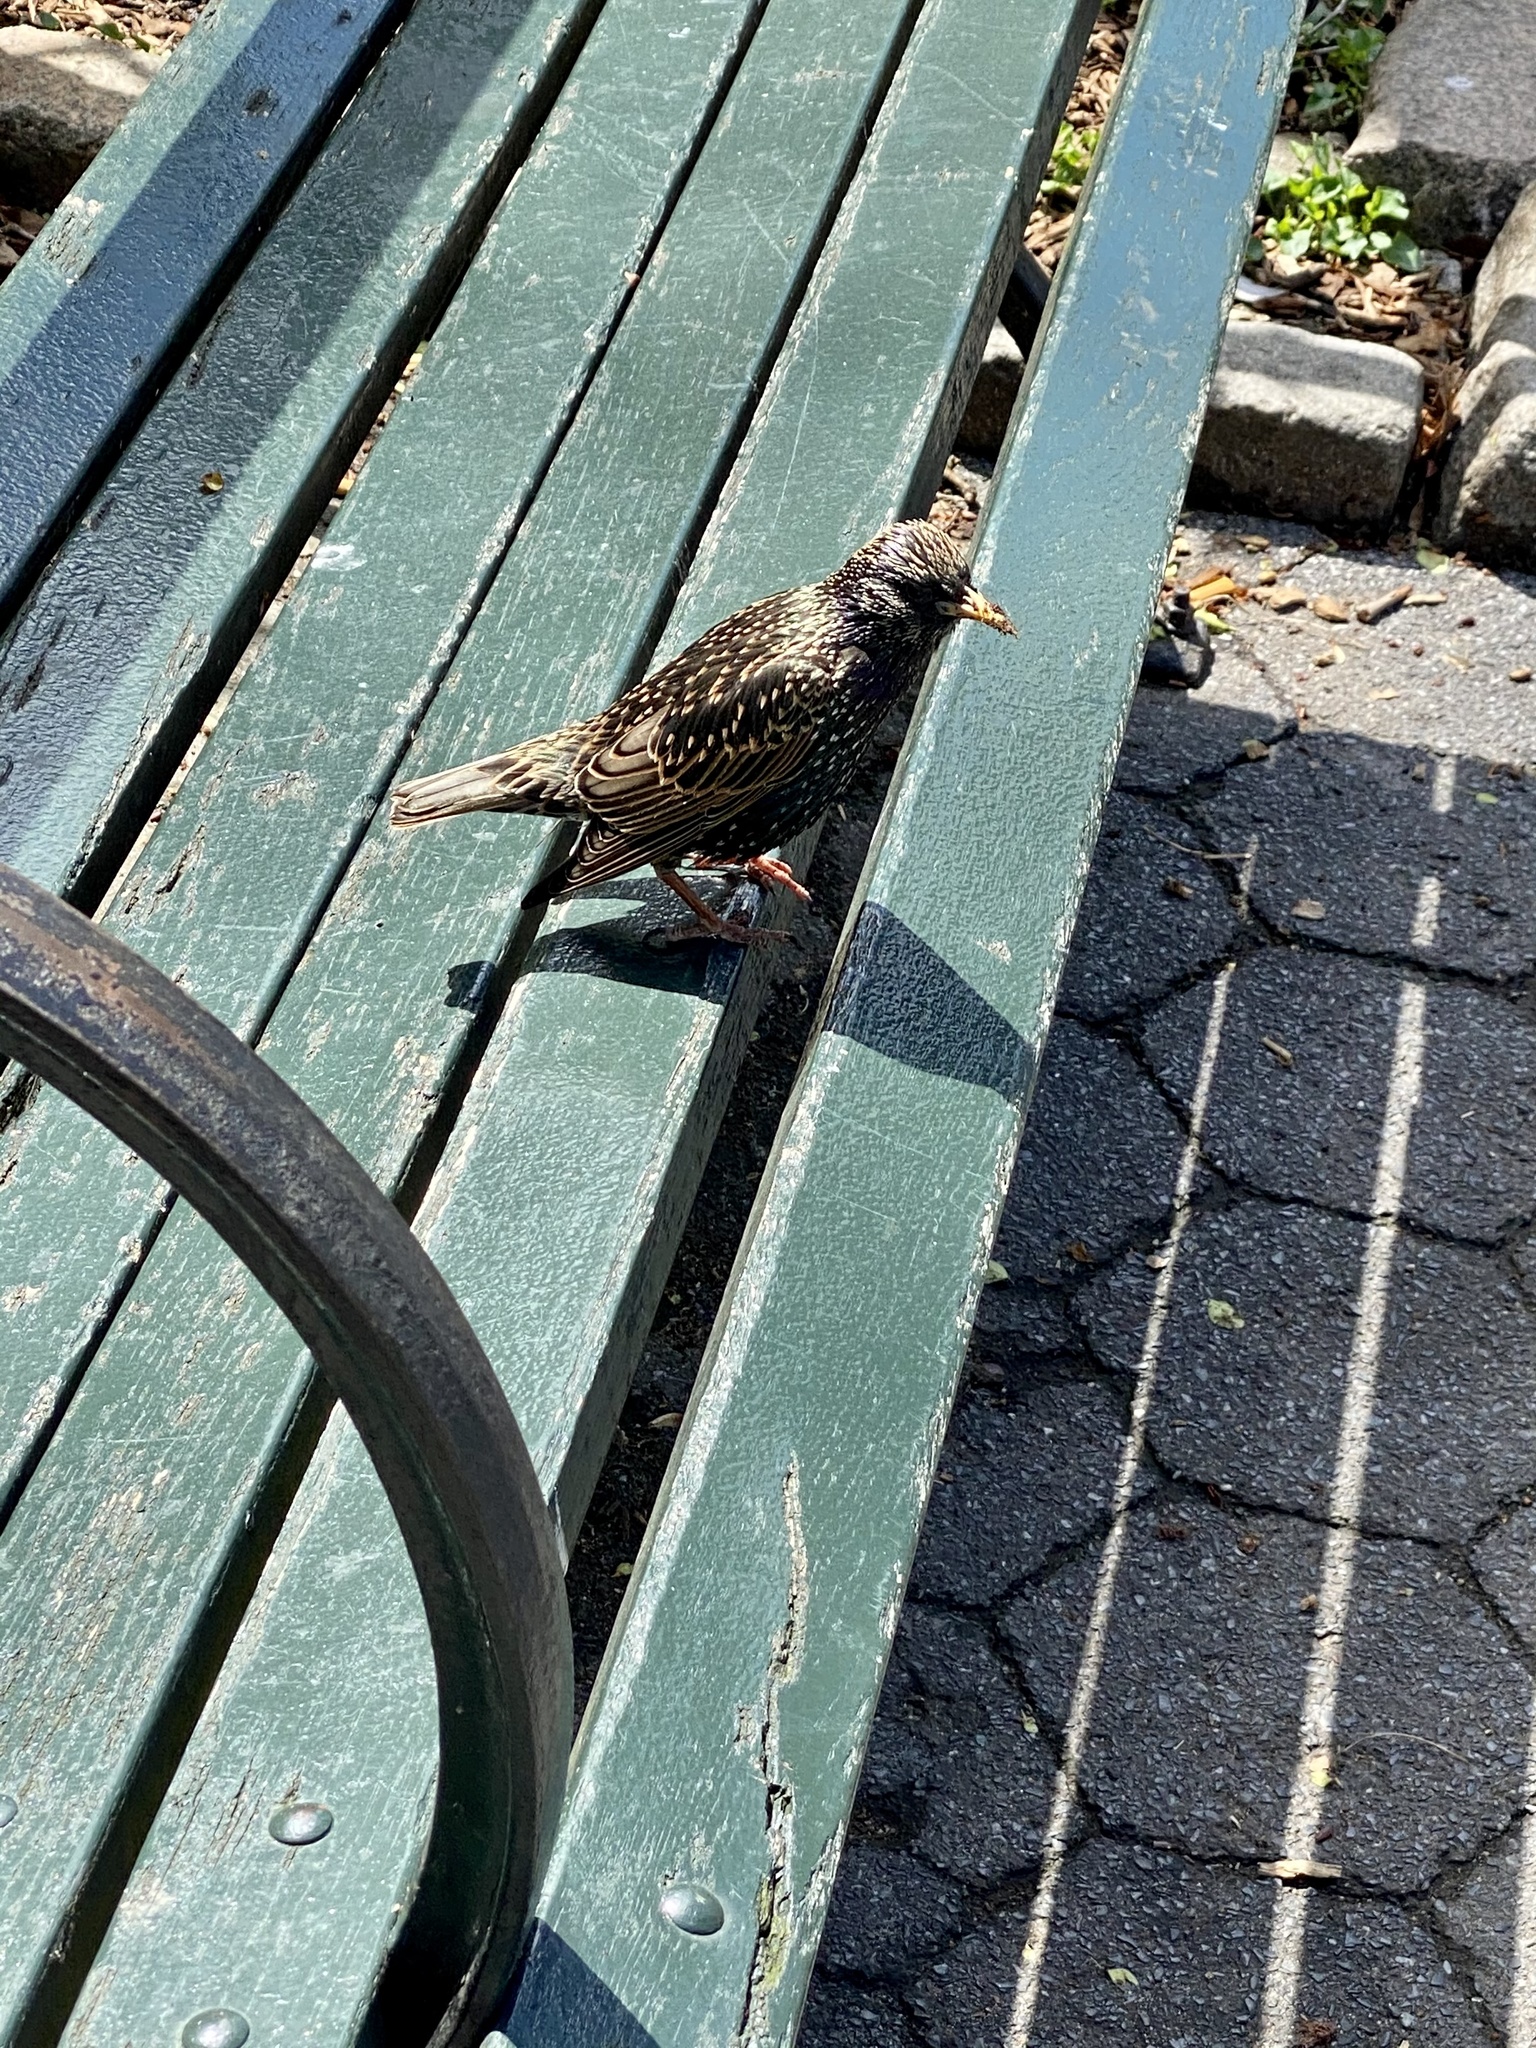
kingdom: Animalia
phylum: Chordata
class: Aves
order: Passeriformes
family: Sturnidae
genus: Sturnus
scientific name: Sturnus vulgaris
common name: Common starling
